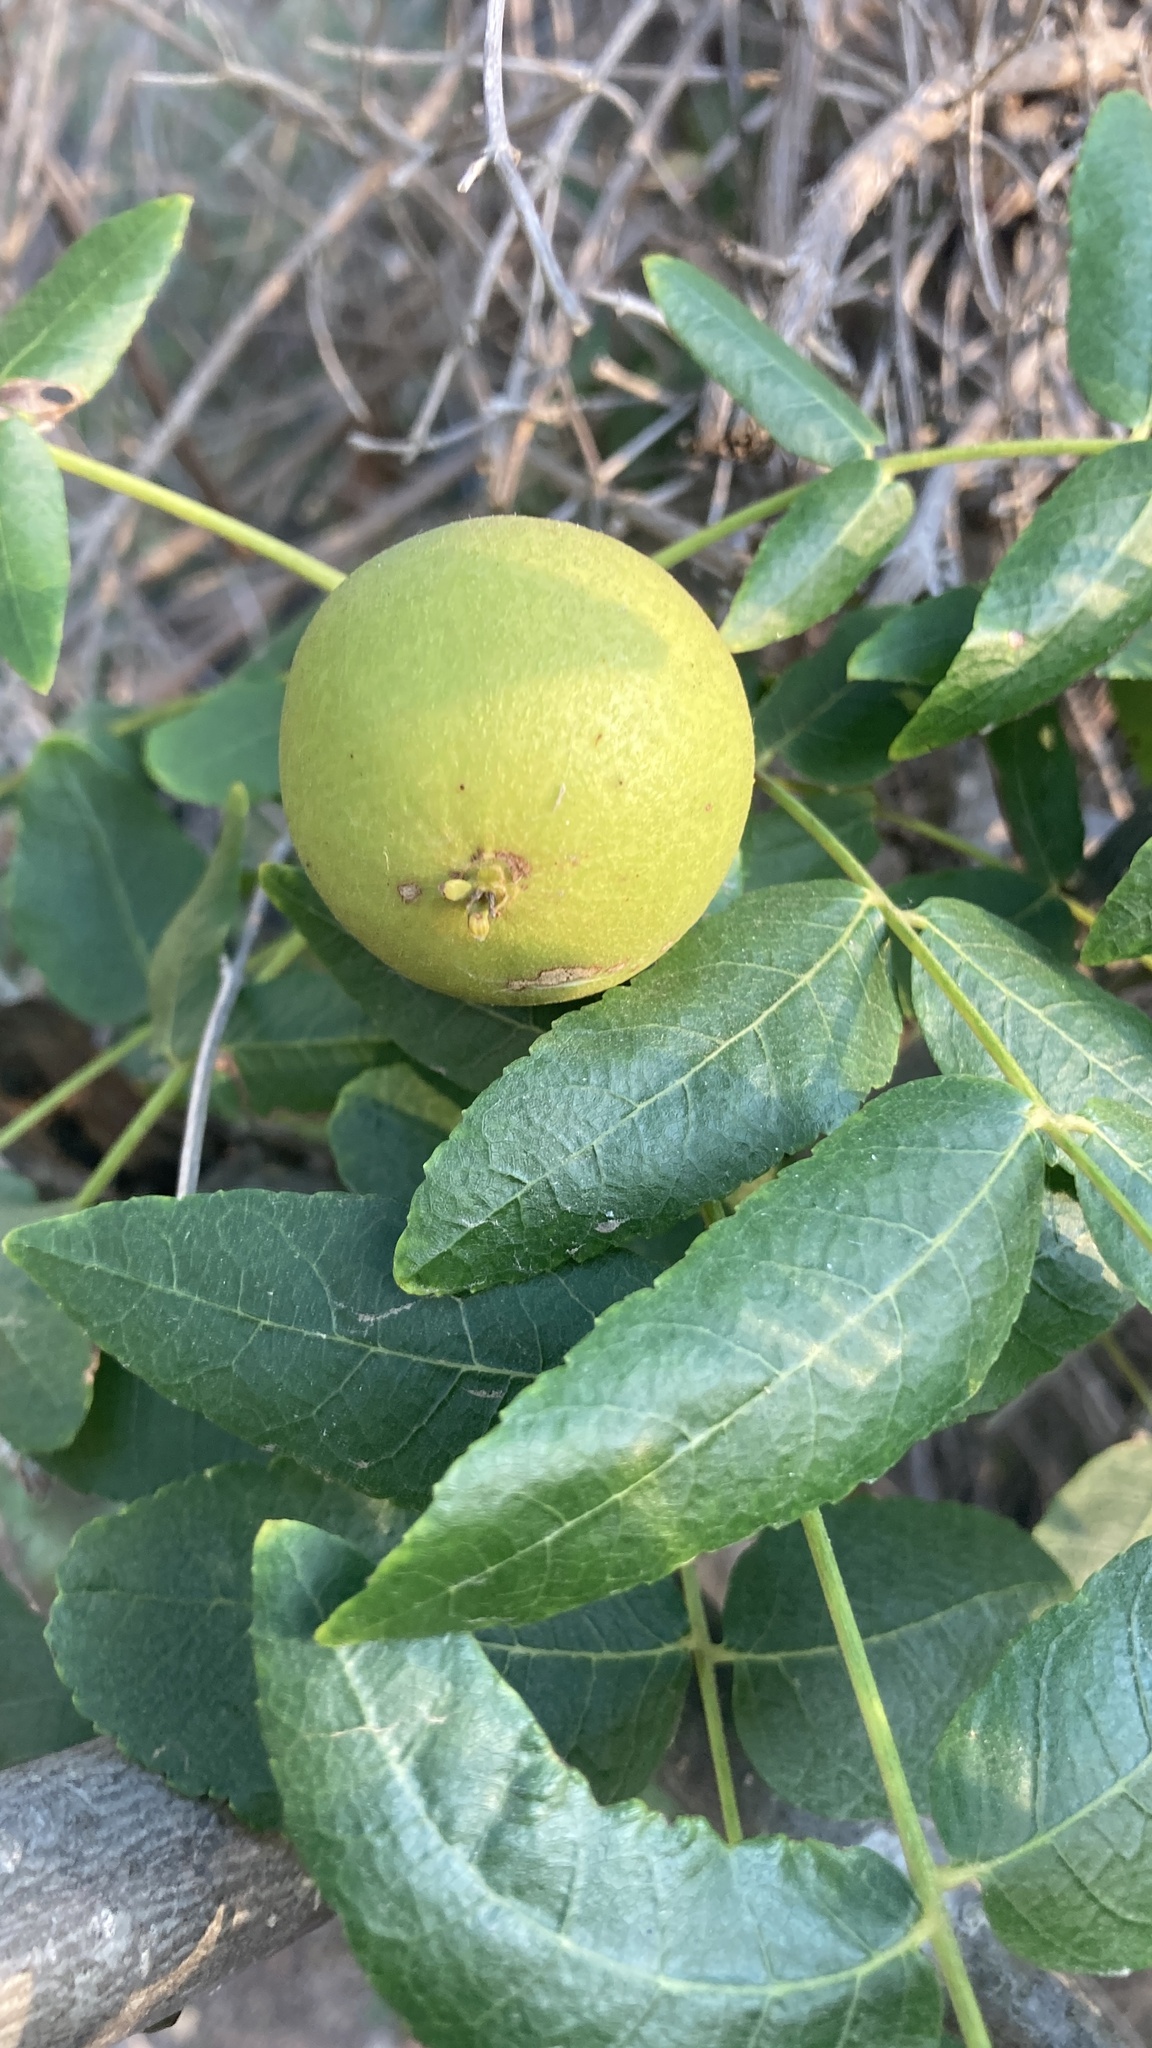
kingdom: Plantae
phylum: Tracheophyta
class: Magnoliopsida
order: Fagales
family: Juglandaceae
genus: Juglans
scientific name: Juglans californica
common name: Southern california black walnut
